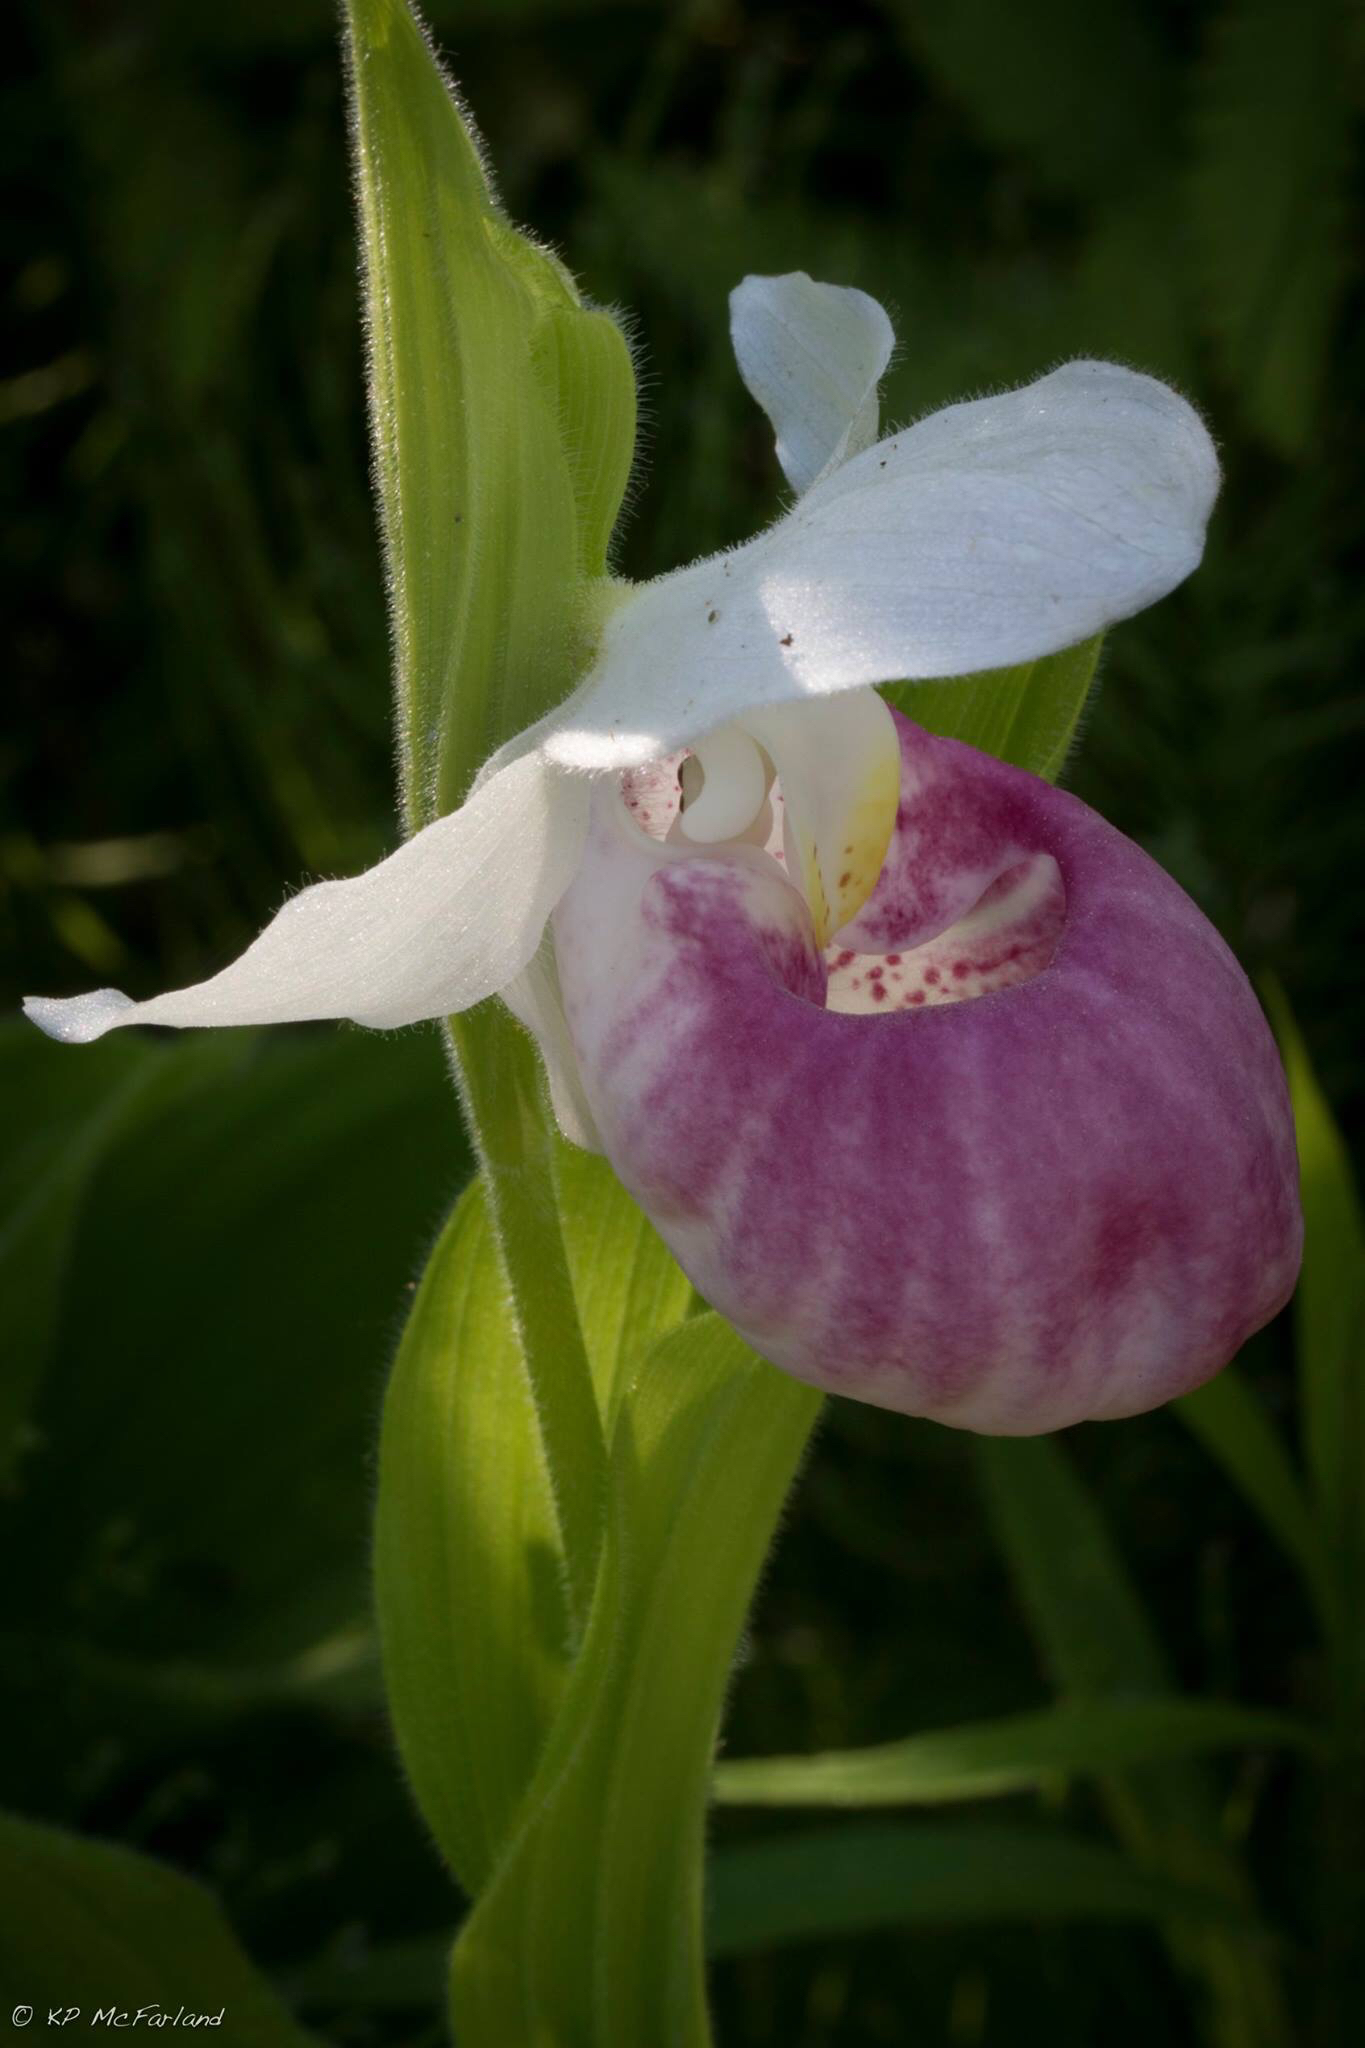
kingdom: Plantae
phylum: Tracheophyta
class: Liliopsida
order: Asparagales
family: Orchidaceae
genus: Cypripedium
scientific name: Cypripedium reginae
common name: Queen lady's-slipper
